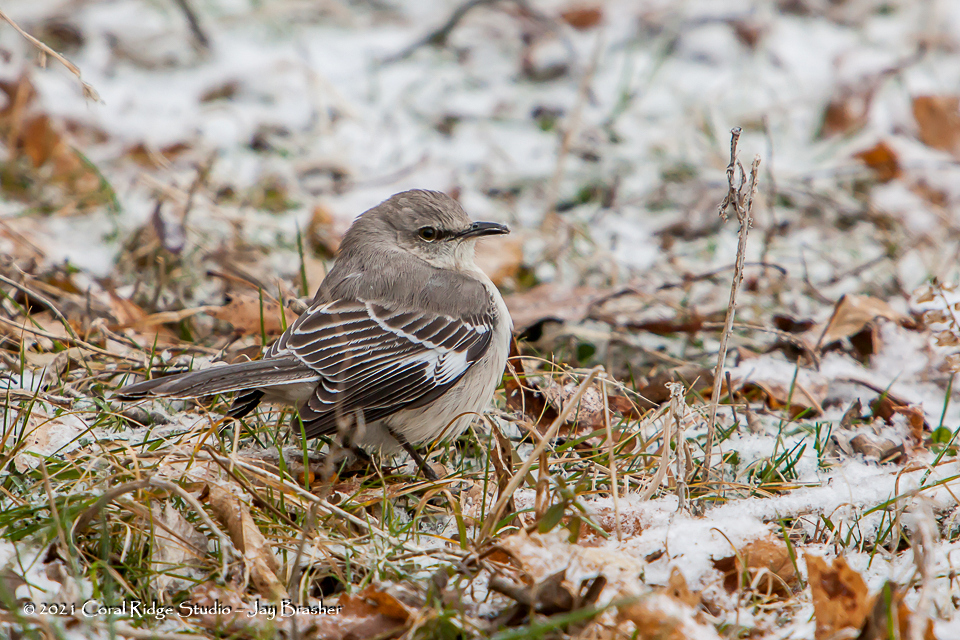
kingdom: Animalia
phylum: Chordata
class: Aves
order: Passeriformes
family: Mimidae
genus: Mimus
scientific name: Mimus polyglottos
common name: Northern mockingbird
